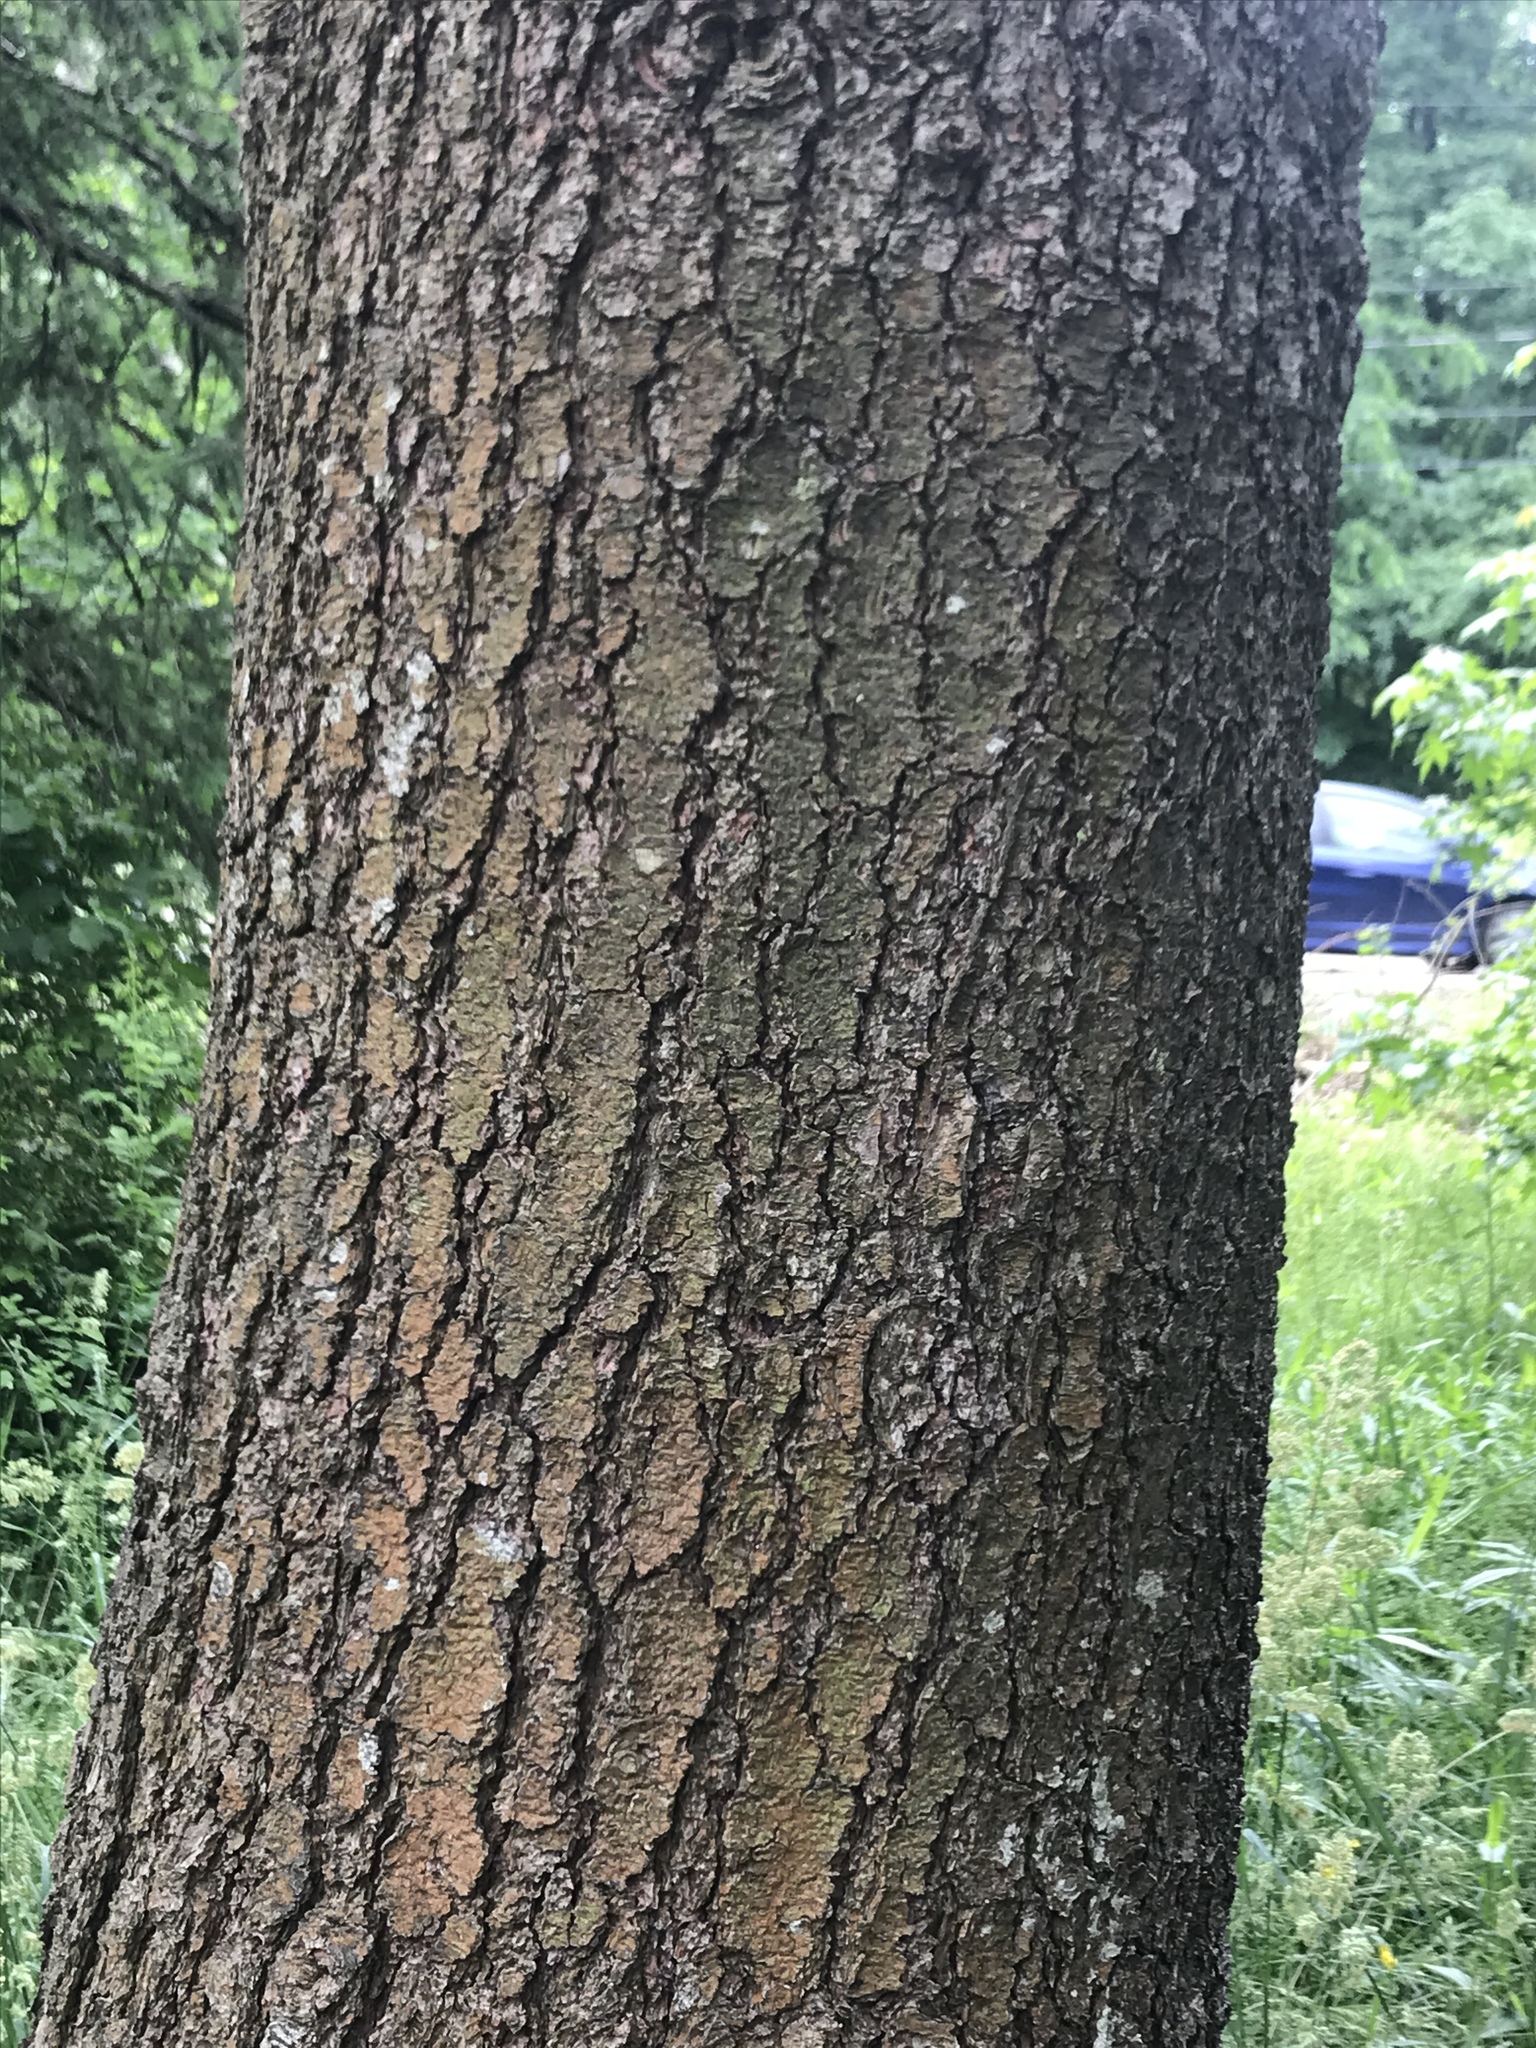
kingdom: Plantae
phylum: Tracheophyta
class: Pinopsida
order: Pinales
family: Pinaceae
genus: Pinus
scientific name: Pinus strobus
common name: Weymouth pine
